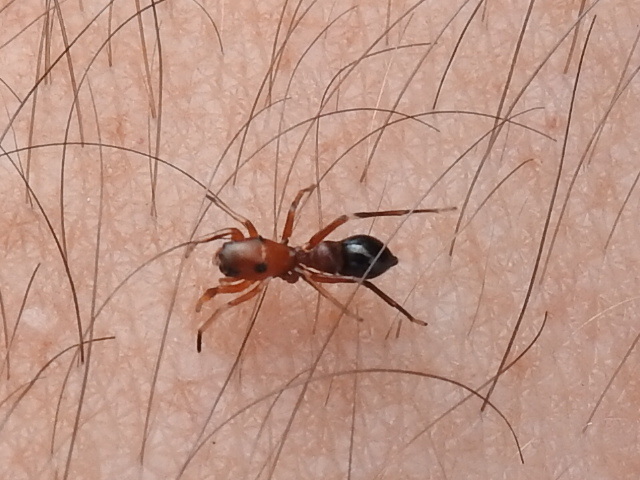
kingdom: Animalia
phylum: Arthropoda
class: Arachnida
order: Araneae
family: Salticidae
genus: Peckhamia
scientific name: Peckhamia
